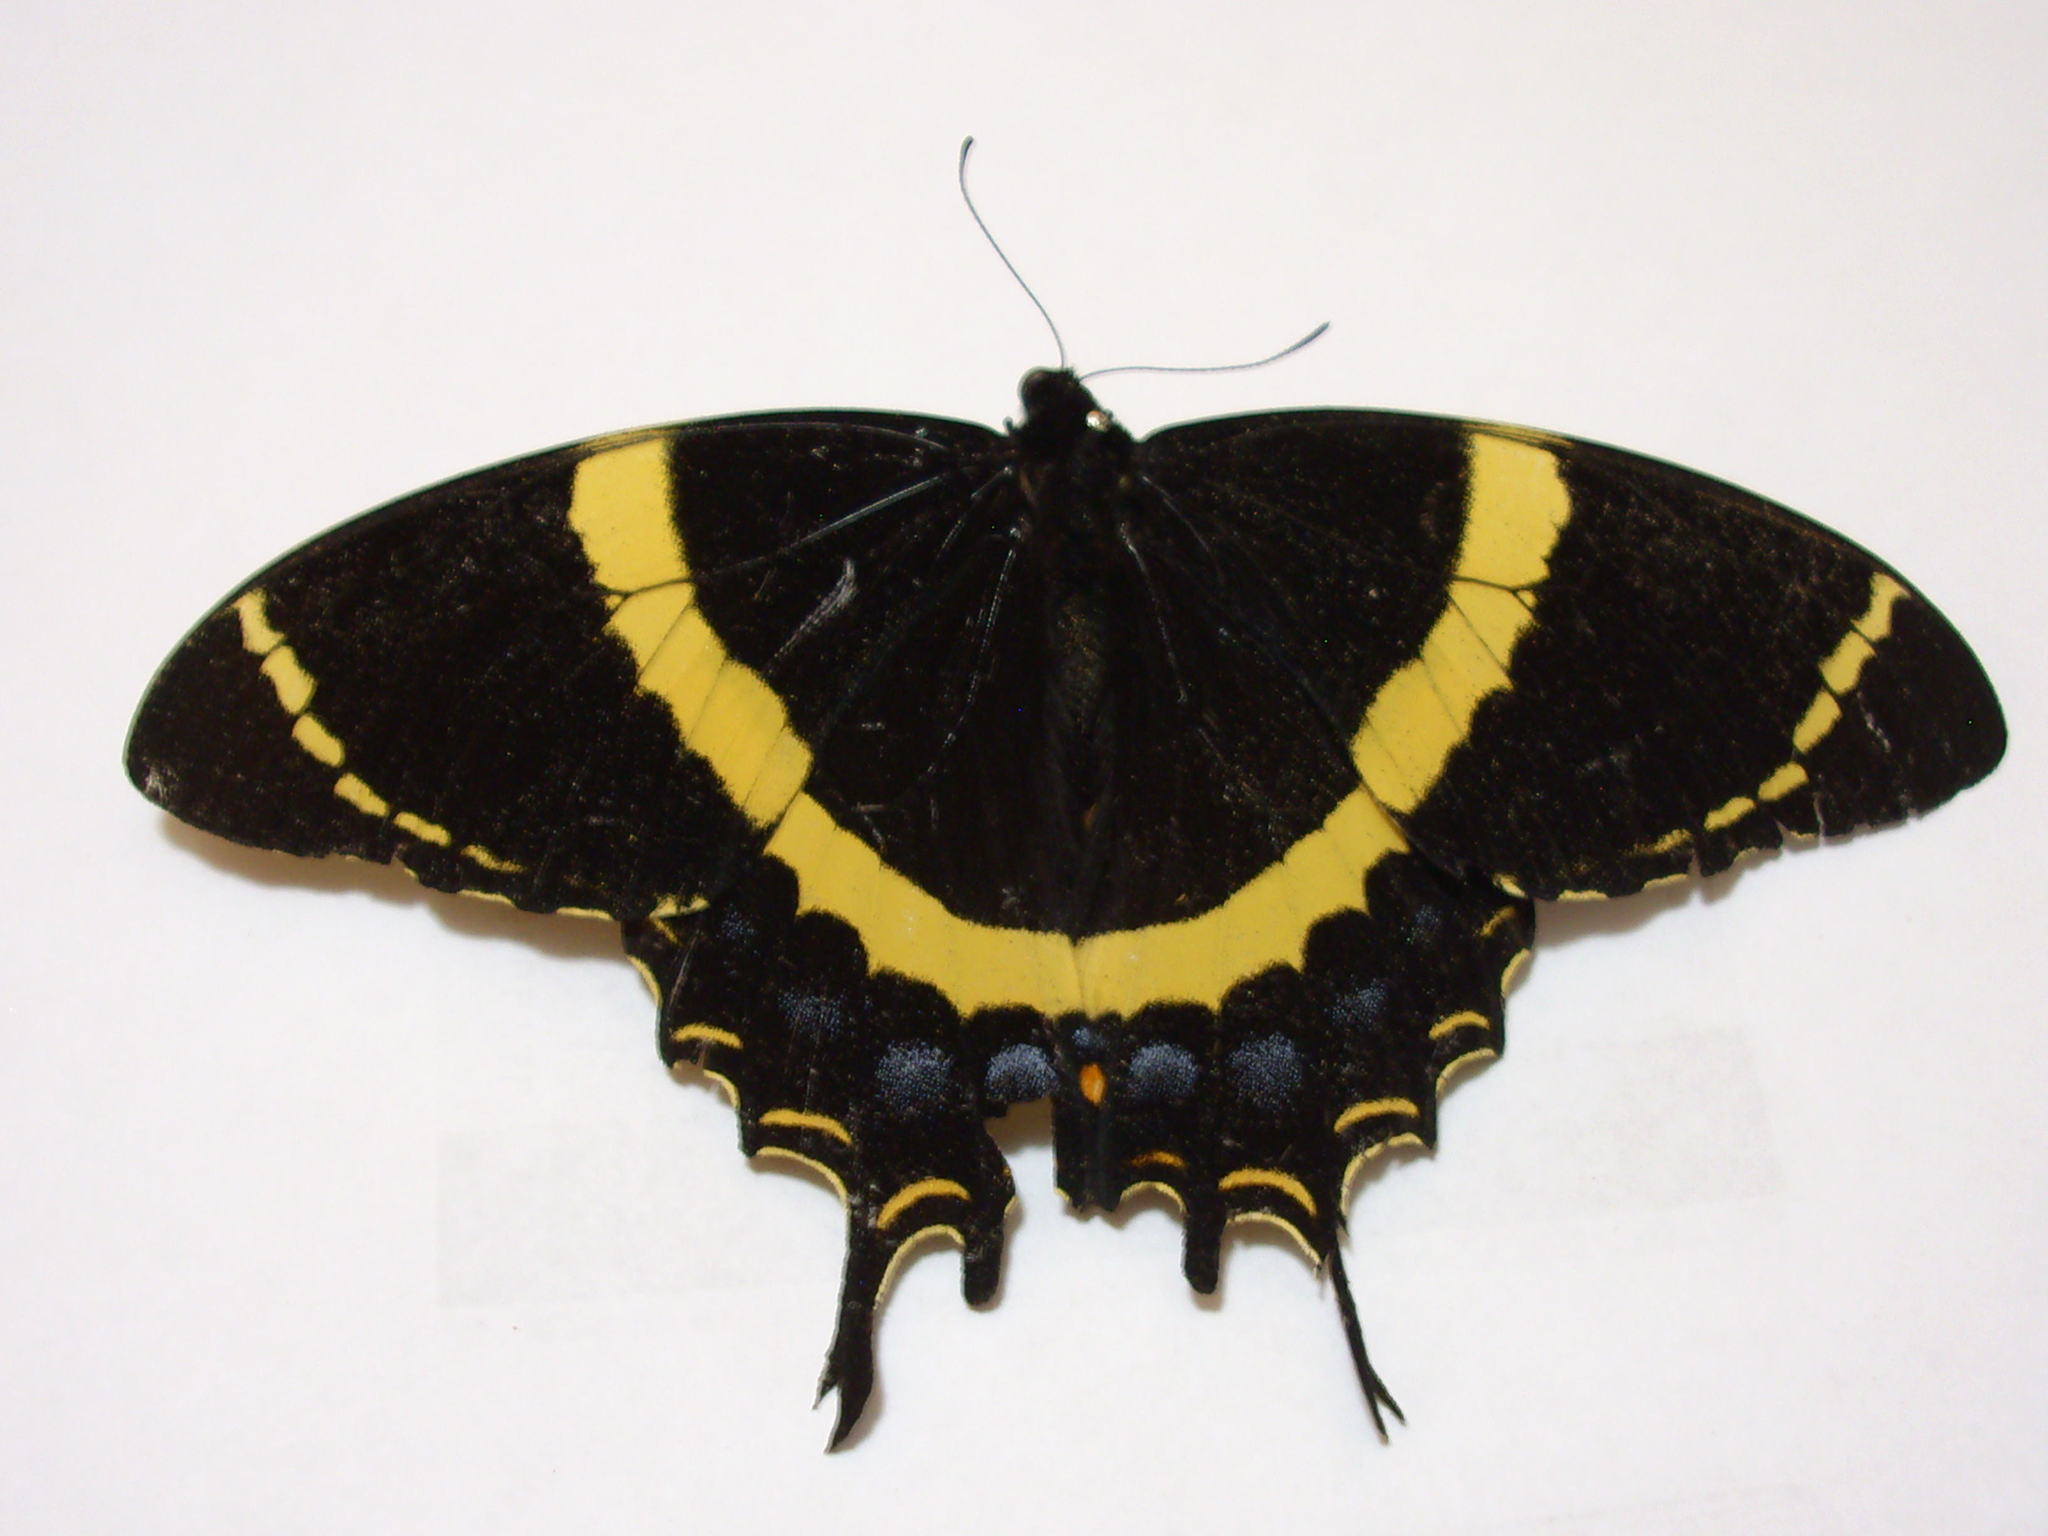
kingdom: Animalia
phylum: Arthropoda
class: Insecta
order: Lepidoptera
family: Papilionidae
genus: Papilio
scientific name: Papilio garamas
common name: Magnificent swallowtail
